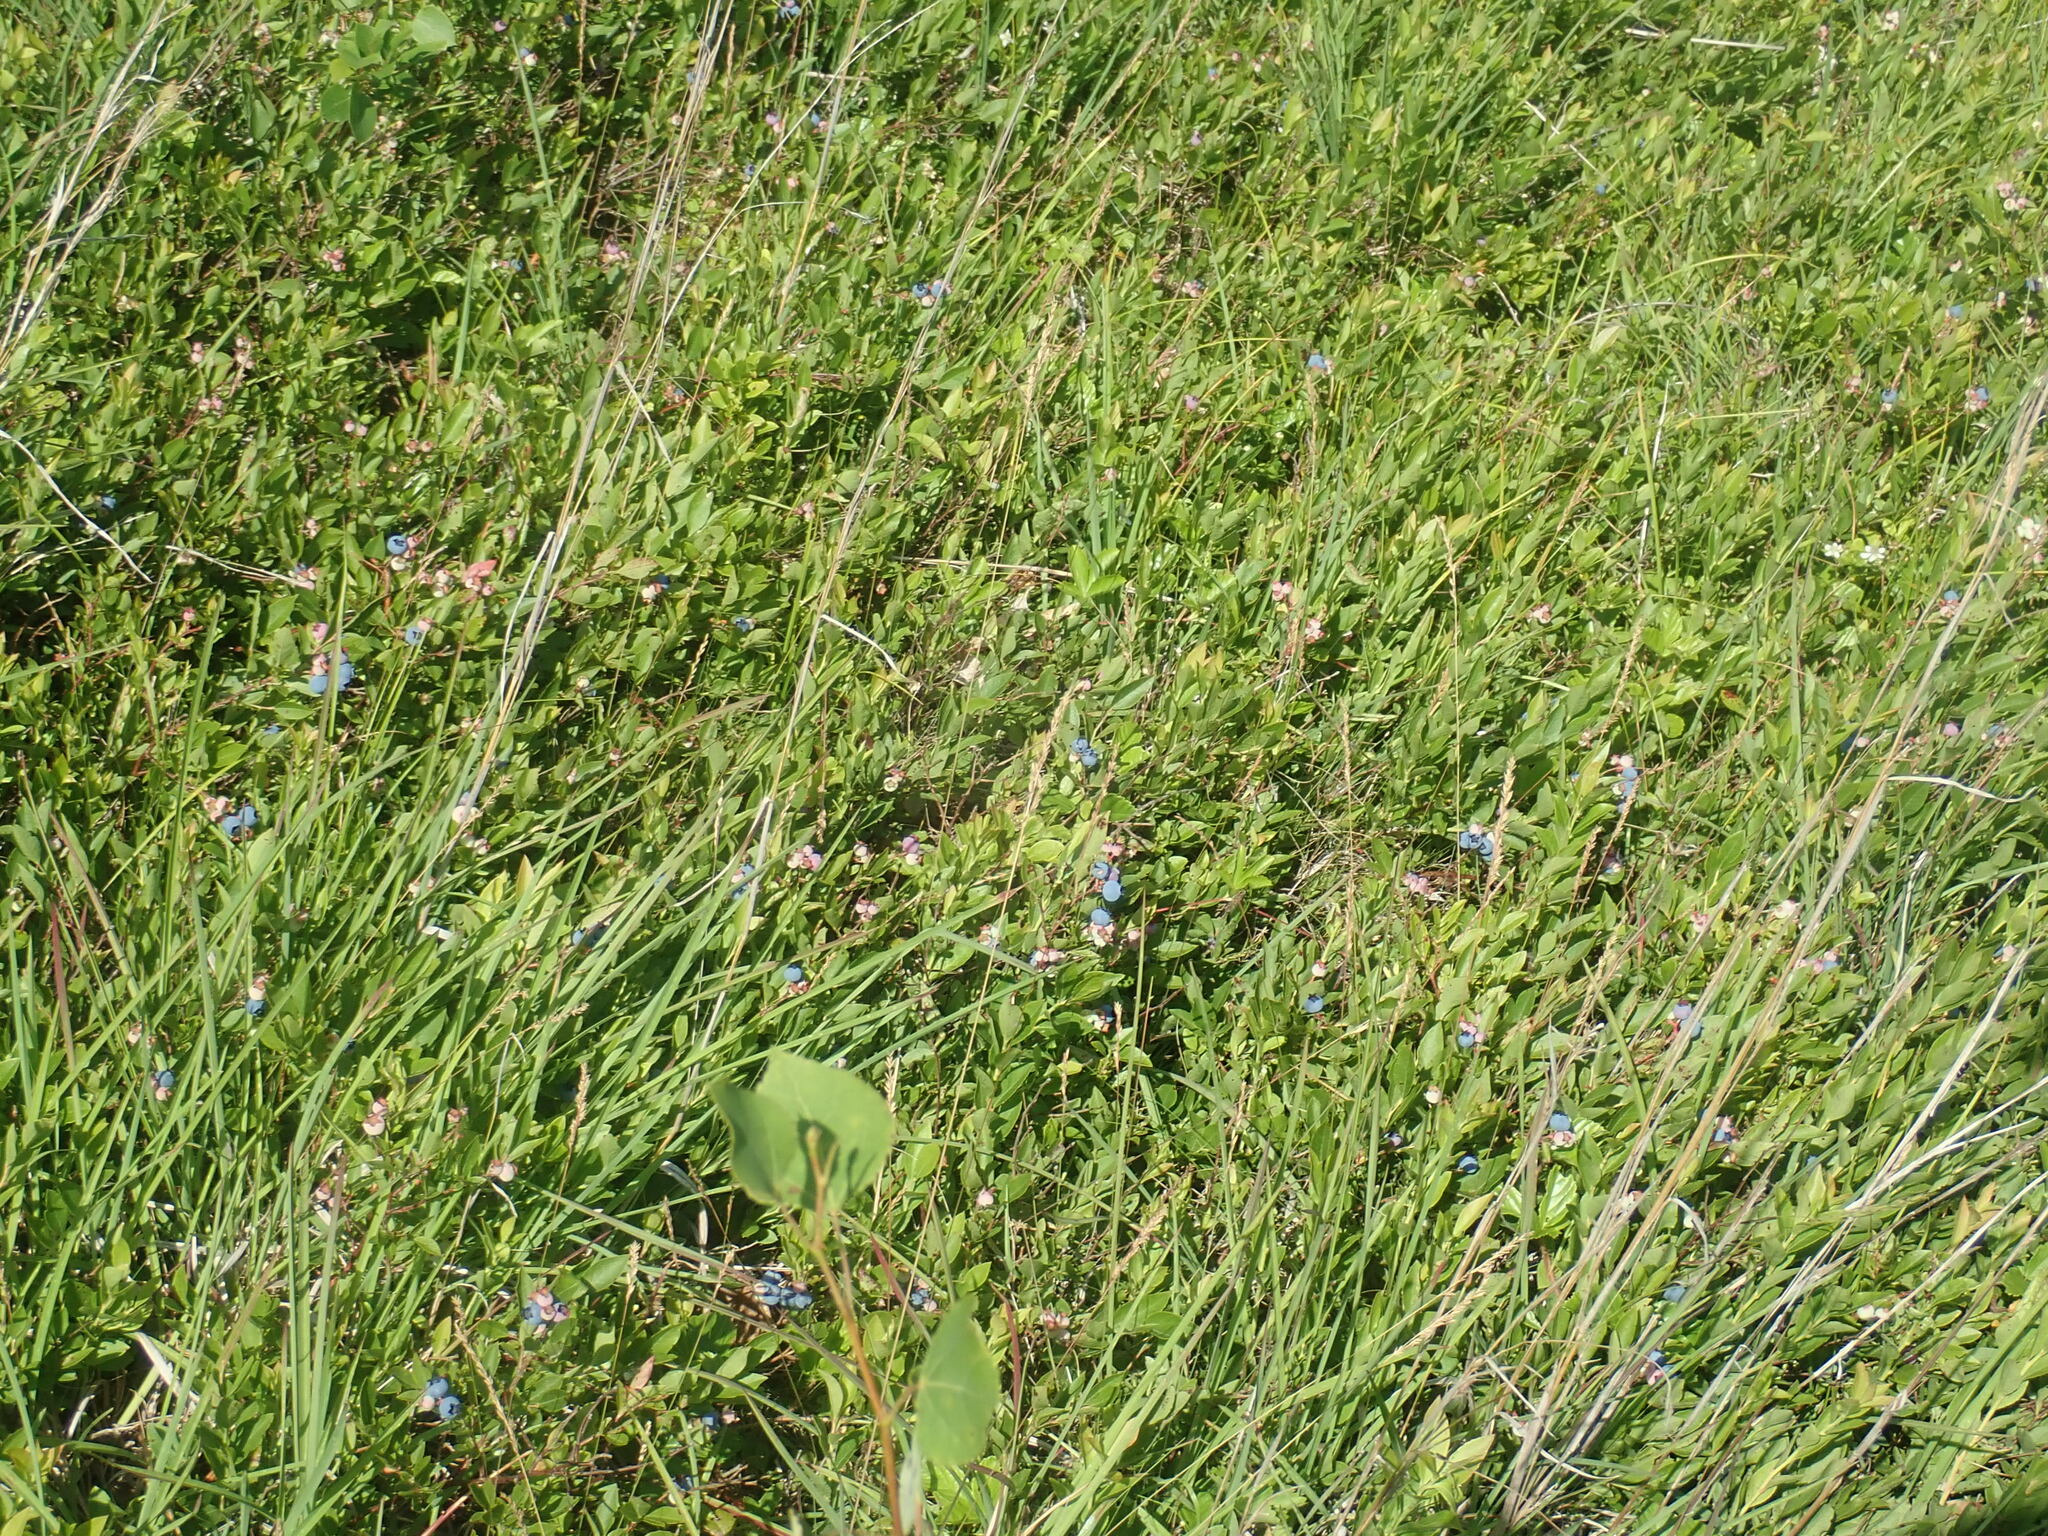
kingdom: Plantae
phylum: Tracheophyta
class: Magnoliopsida
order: Ericales
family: Ericaceae
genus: Vaccinium
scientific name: Vaccinium angustifolium
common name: Early lowbush blueberry
